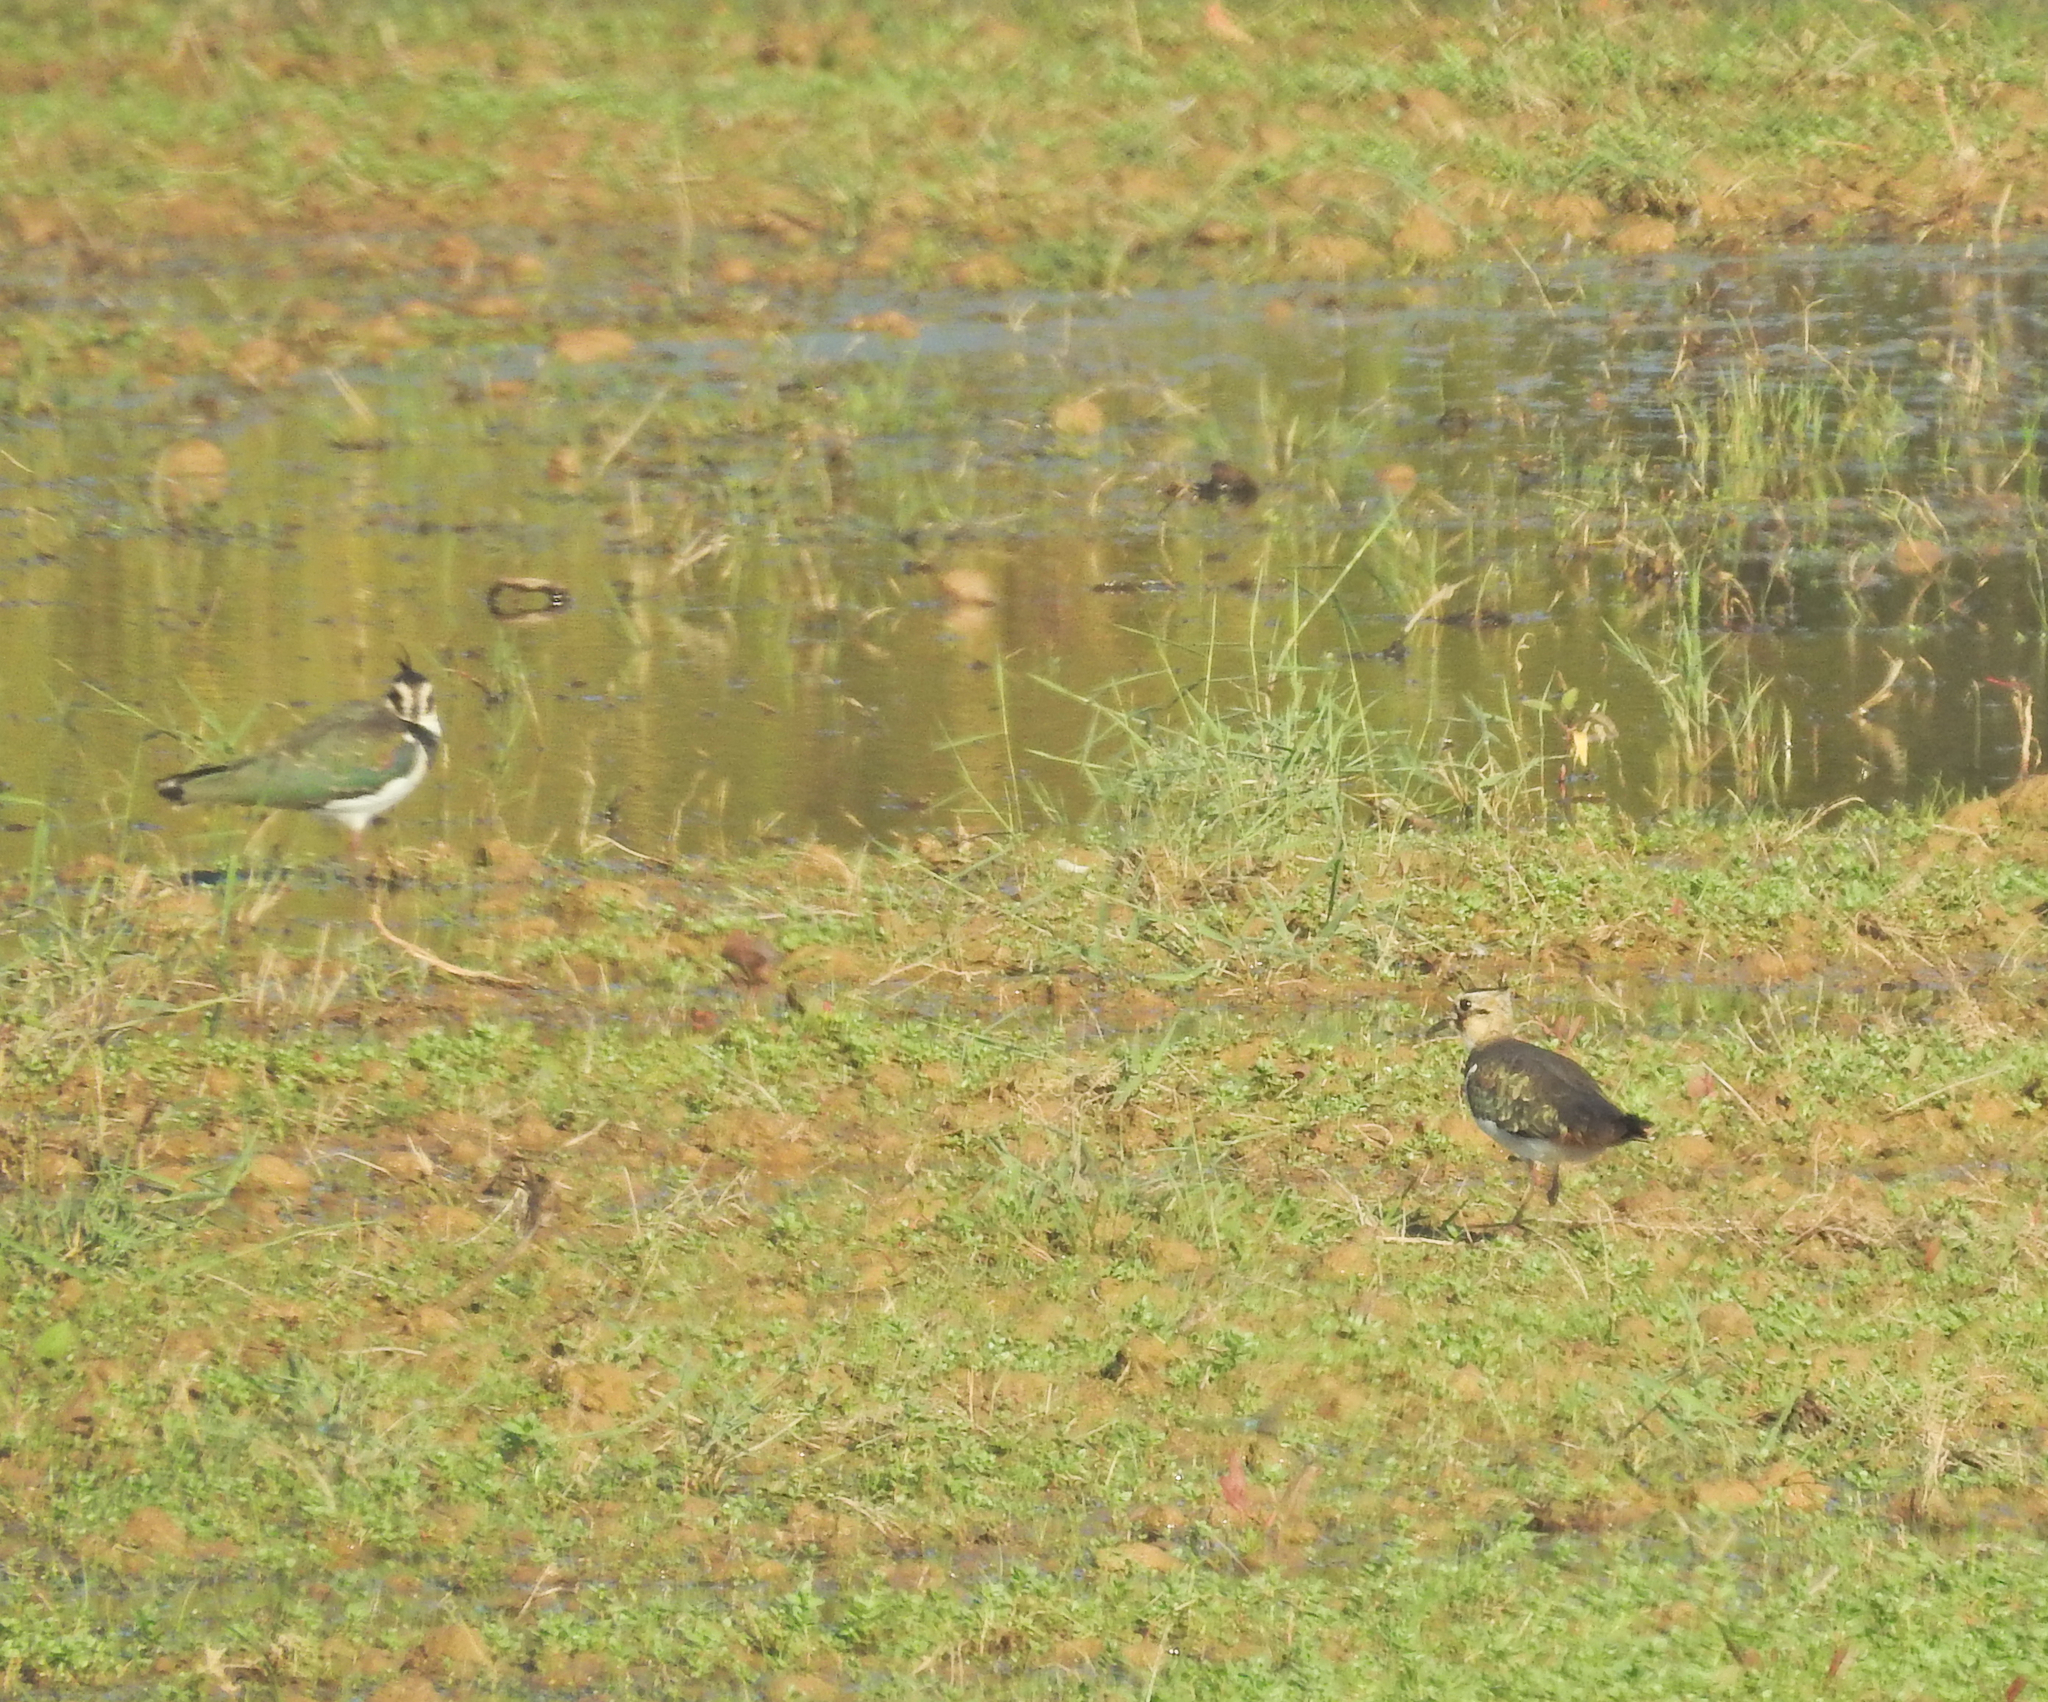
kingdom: Animalia
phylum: Chordata
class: Aves
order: Charadriiformes
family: Charadriidae
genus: Vanellus
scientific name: Vanellus vanellus
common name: Northern lapwing
